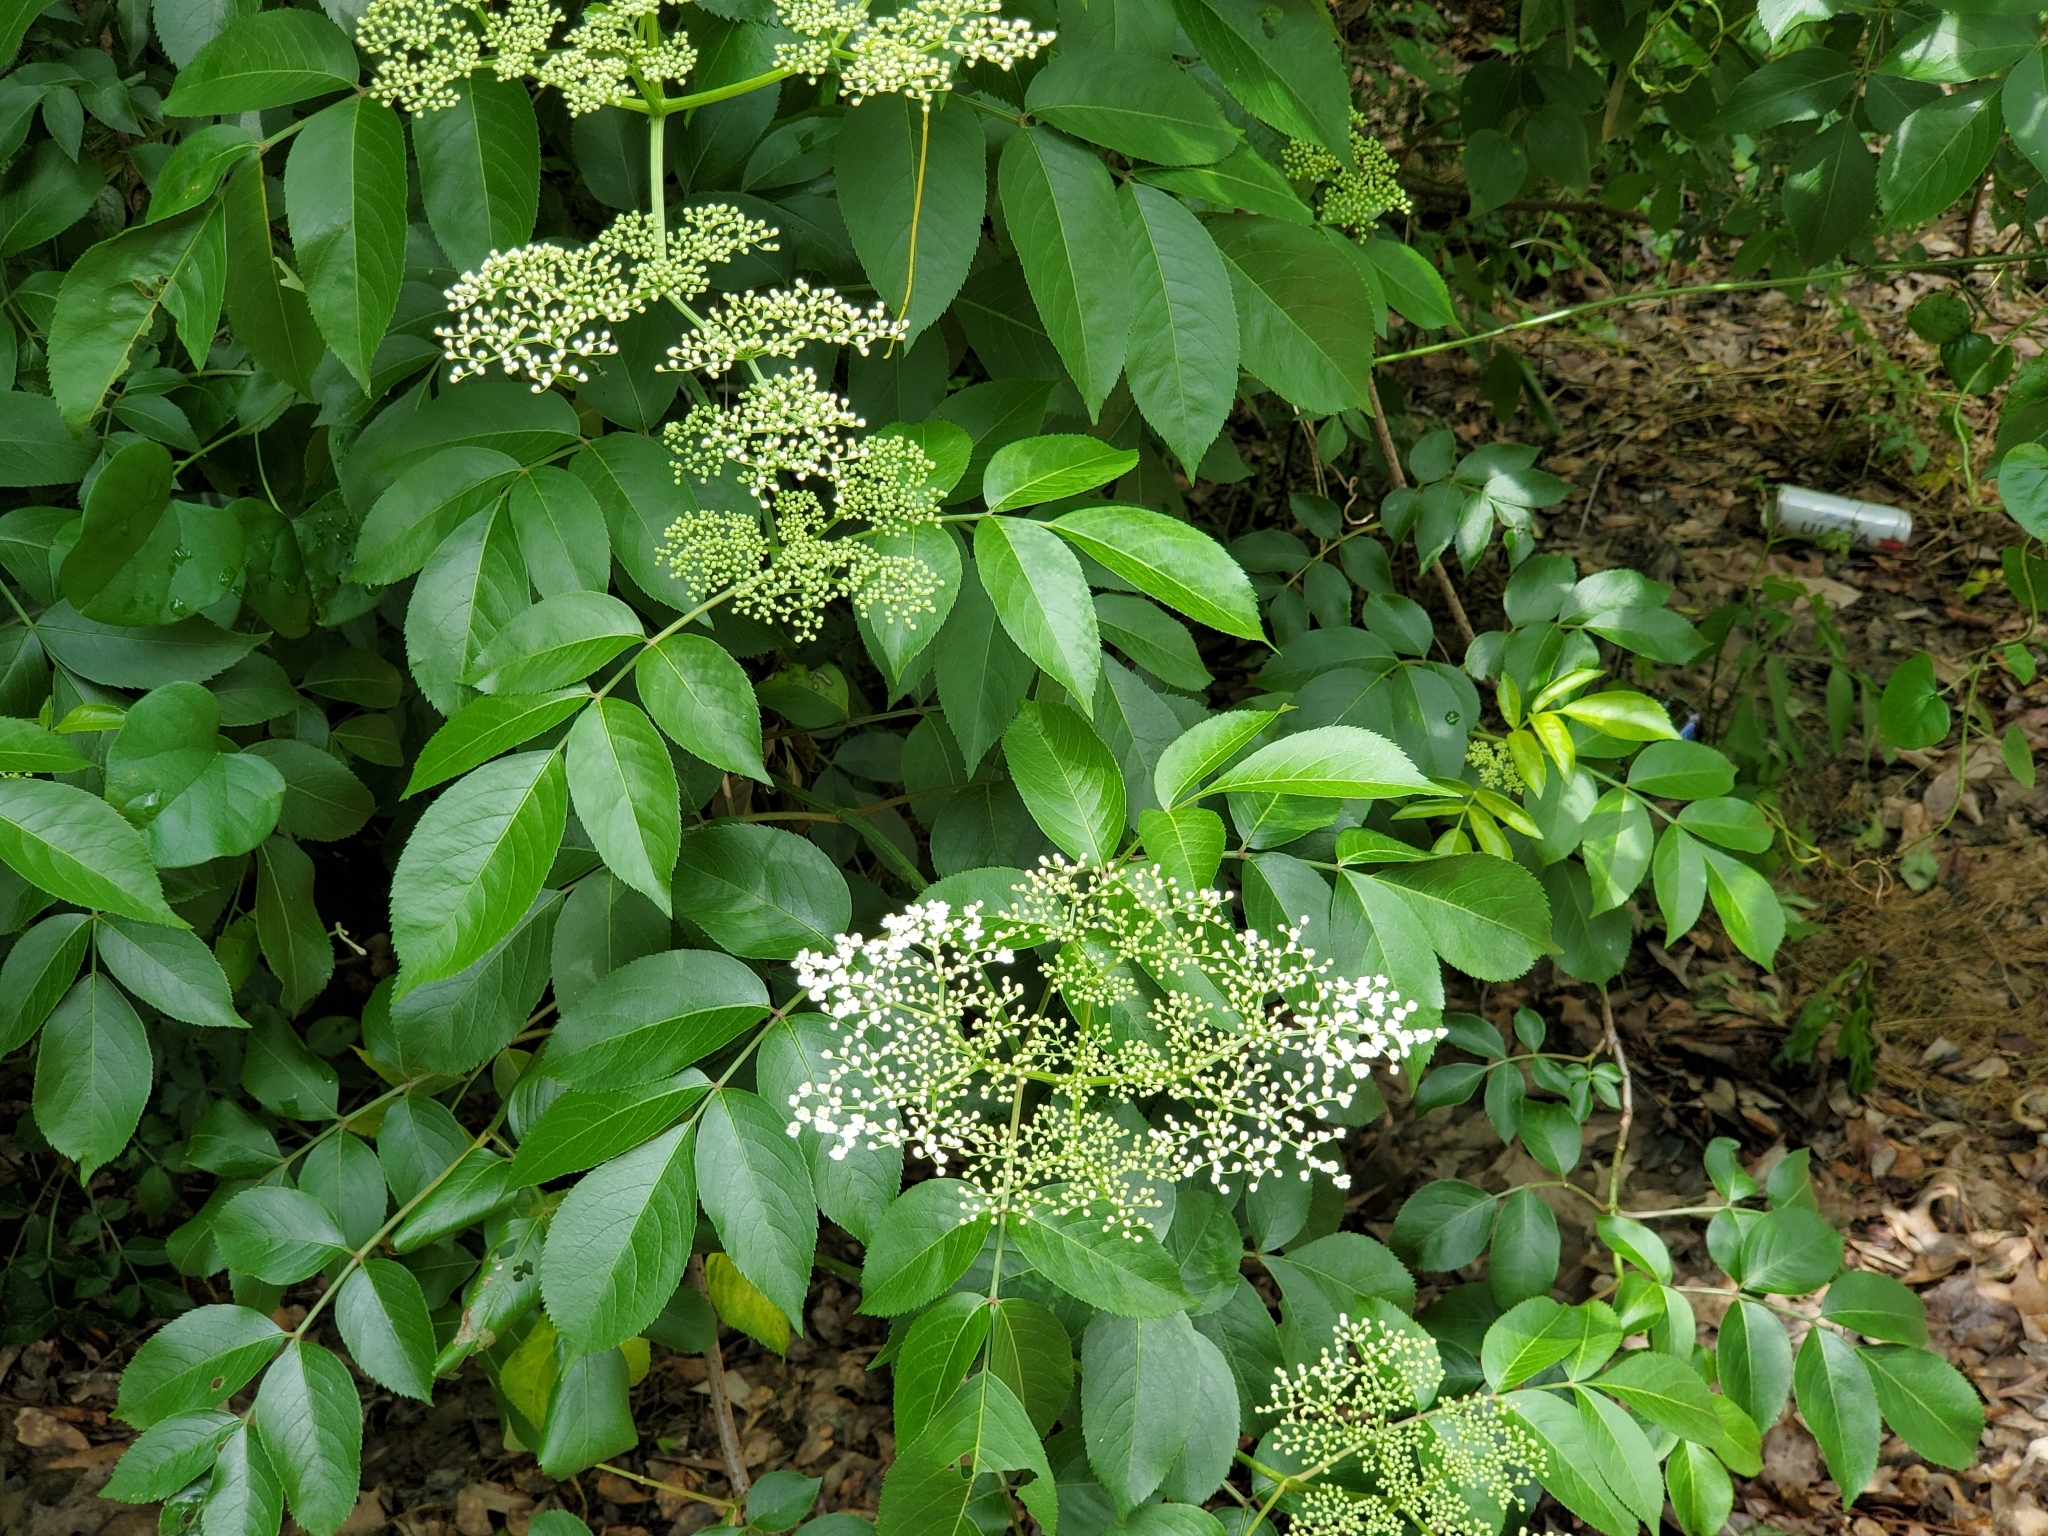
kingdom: Plantae
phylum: Tracheophyta
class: Magnoliopsida
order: Dipsacales
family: Viburnaceae
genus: Sambucus
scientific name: Sambucus canadensis
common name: American elder
